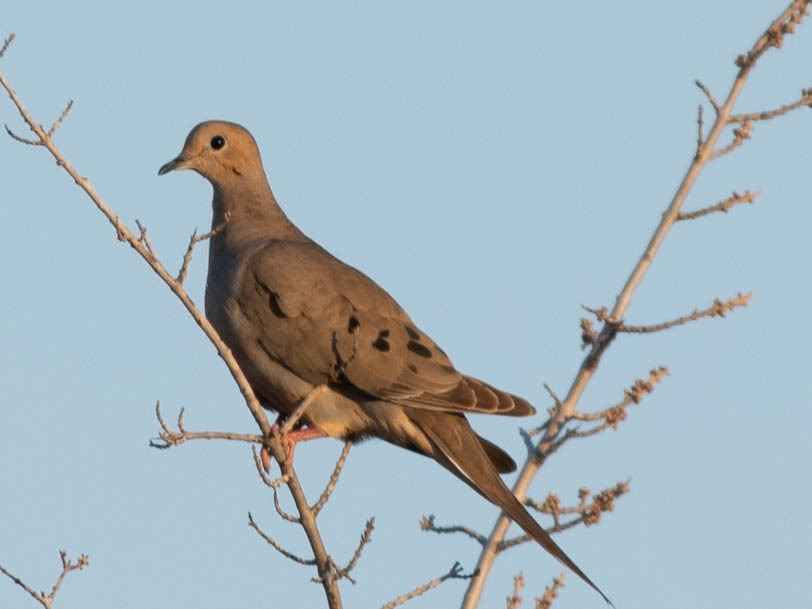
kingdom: Animalia
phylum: Chordata
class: Aves
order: Columbiformes
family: Columbidae
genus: Zenaida
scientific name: Zenaida macroura
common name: Mourning dove
